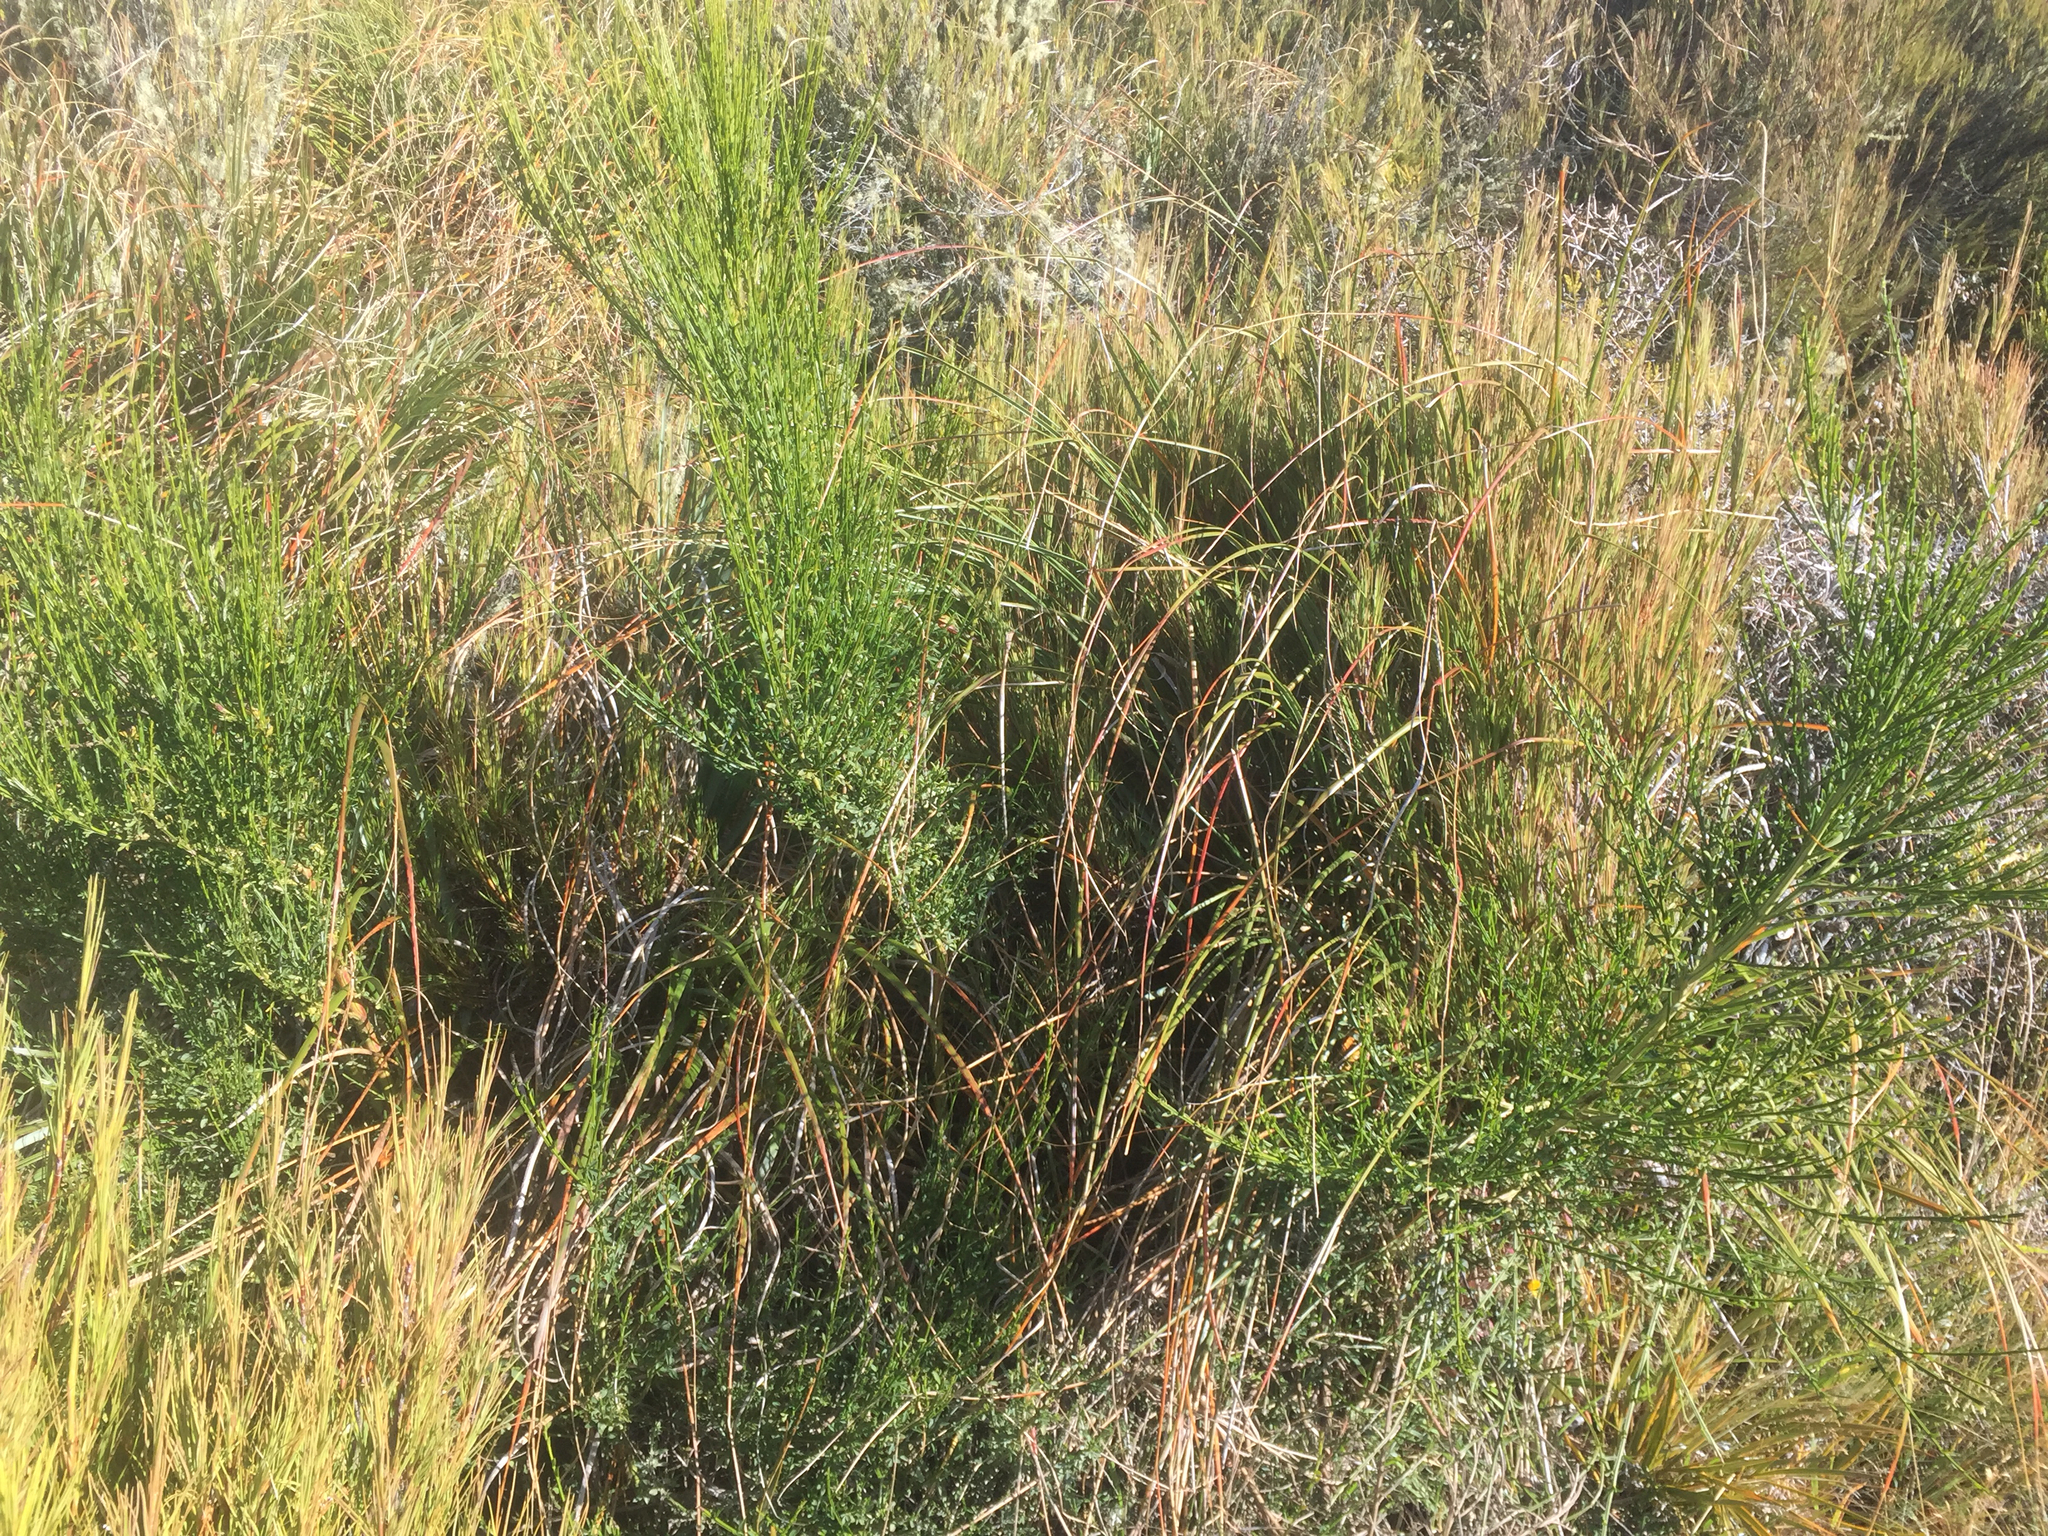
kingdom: Plantae
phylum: Tracheophyta
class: Magnoliopsida
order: Fabales
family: Fabaceae
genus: Cytisus
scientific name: Cytisus scoparius
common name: Scotch broom
